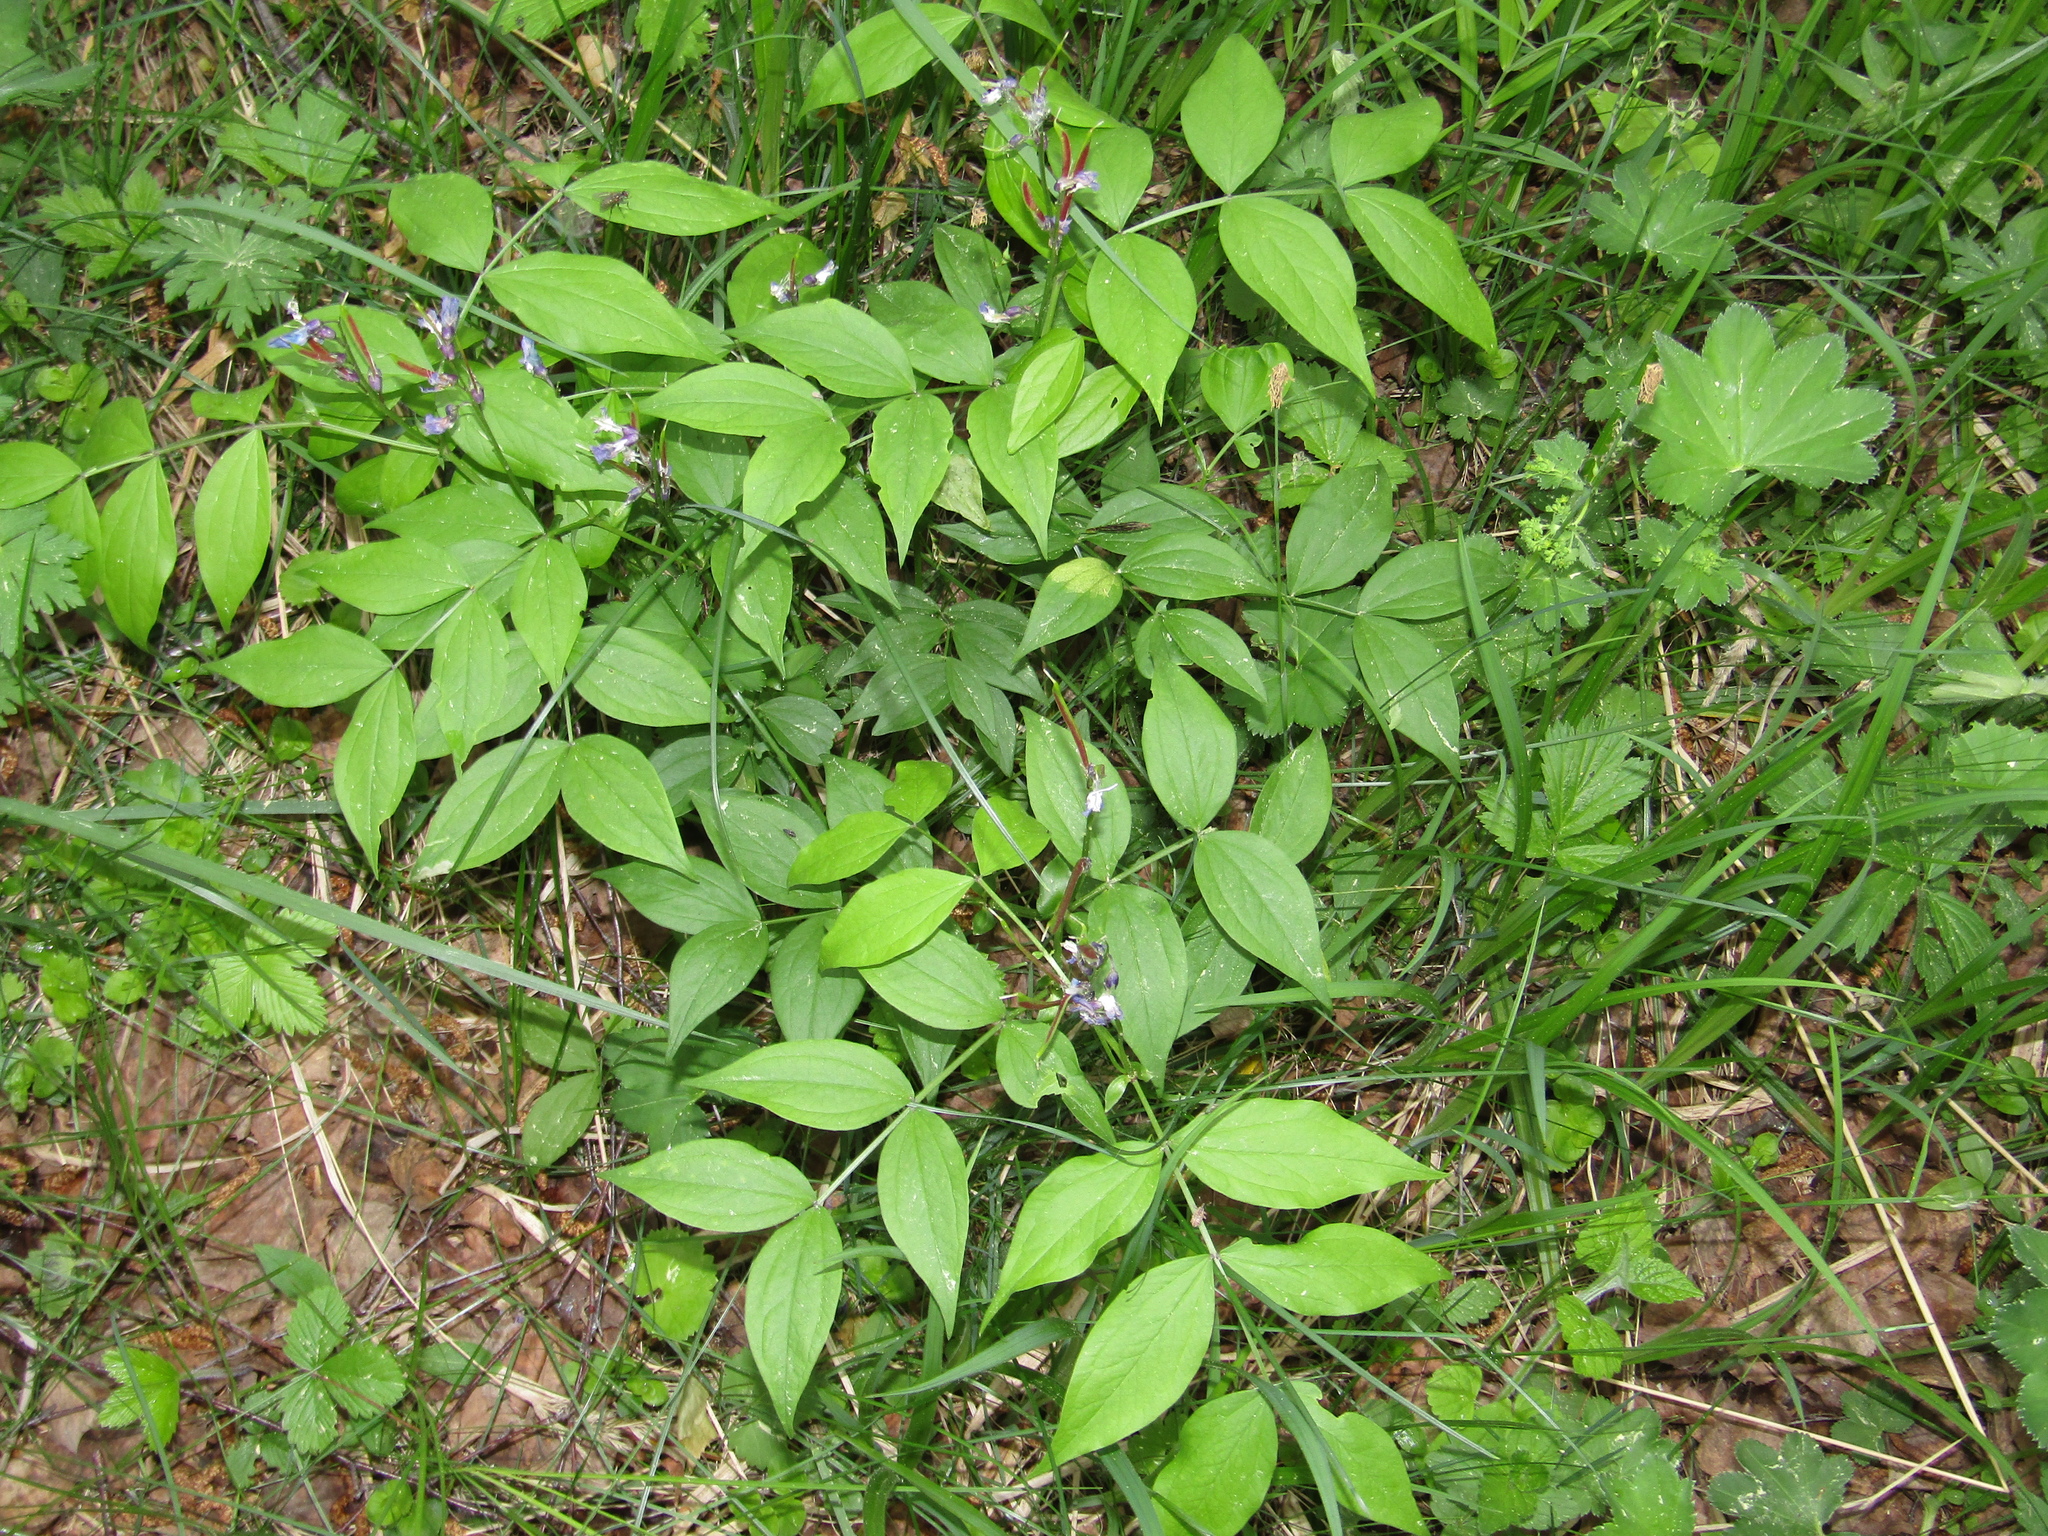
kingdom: Plantae
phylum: Tracheophyta
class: Magnoliopsida
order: Fabales
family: Fabaceae
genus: Lathyrus
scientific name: Lathyrus vernus
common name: Spring pea
